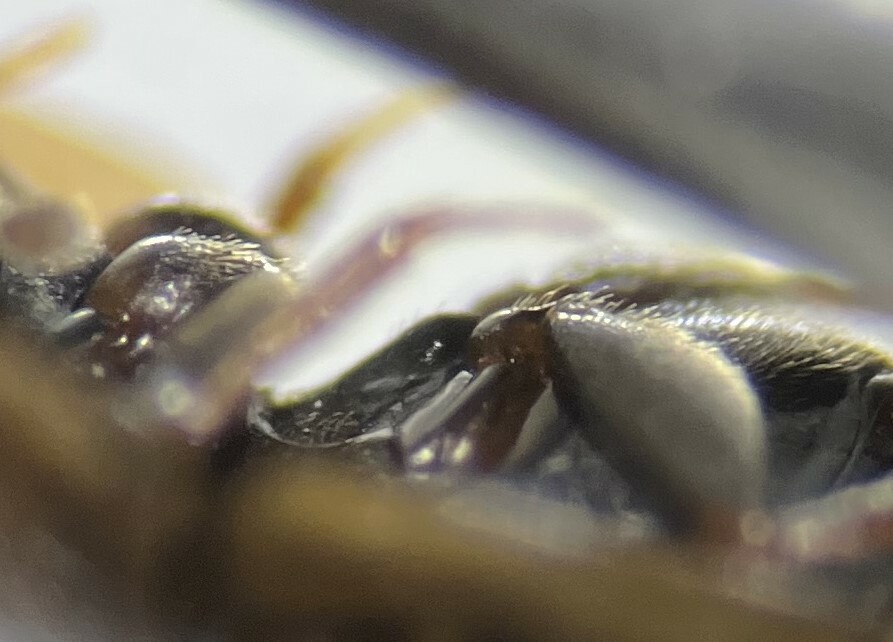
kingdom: Animalia
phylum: Arthropoda
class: Insecta
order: Coleoptera
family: Hydrophilidae
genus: Enochrus
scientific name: Enochrus ochraceus
